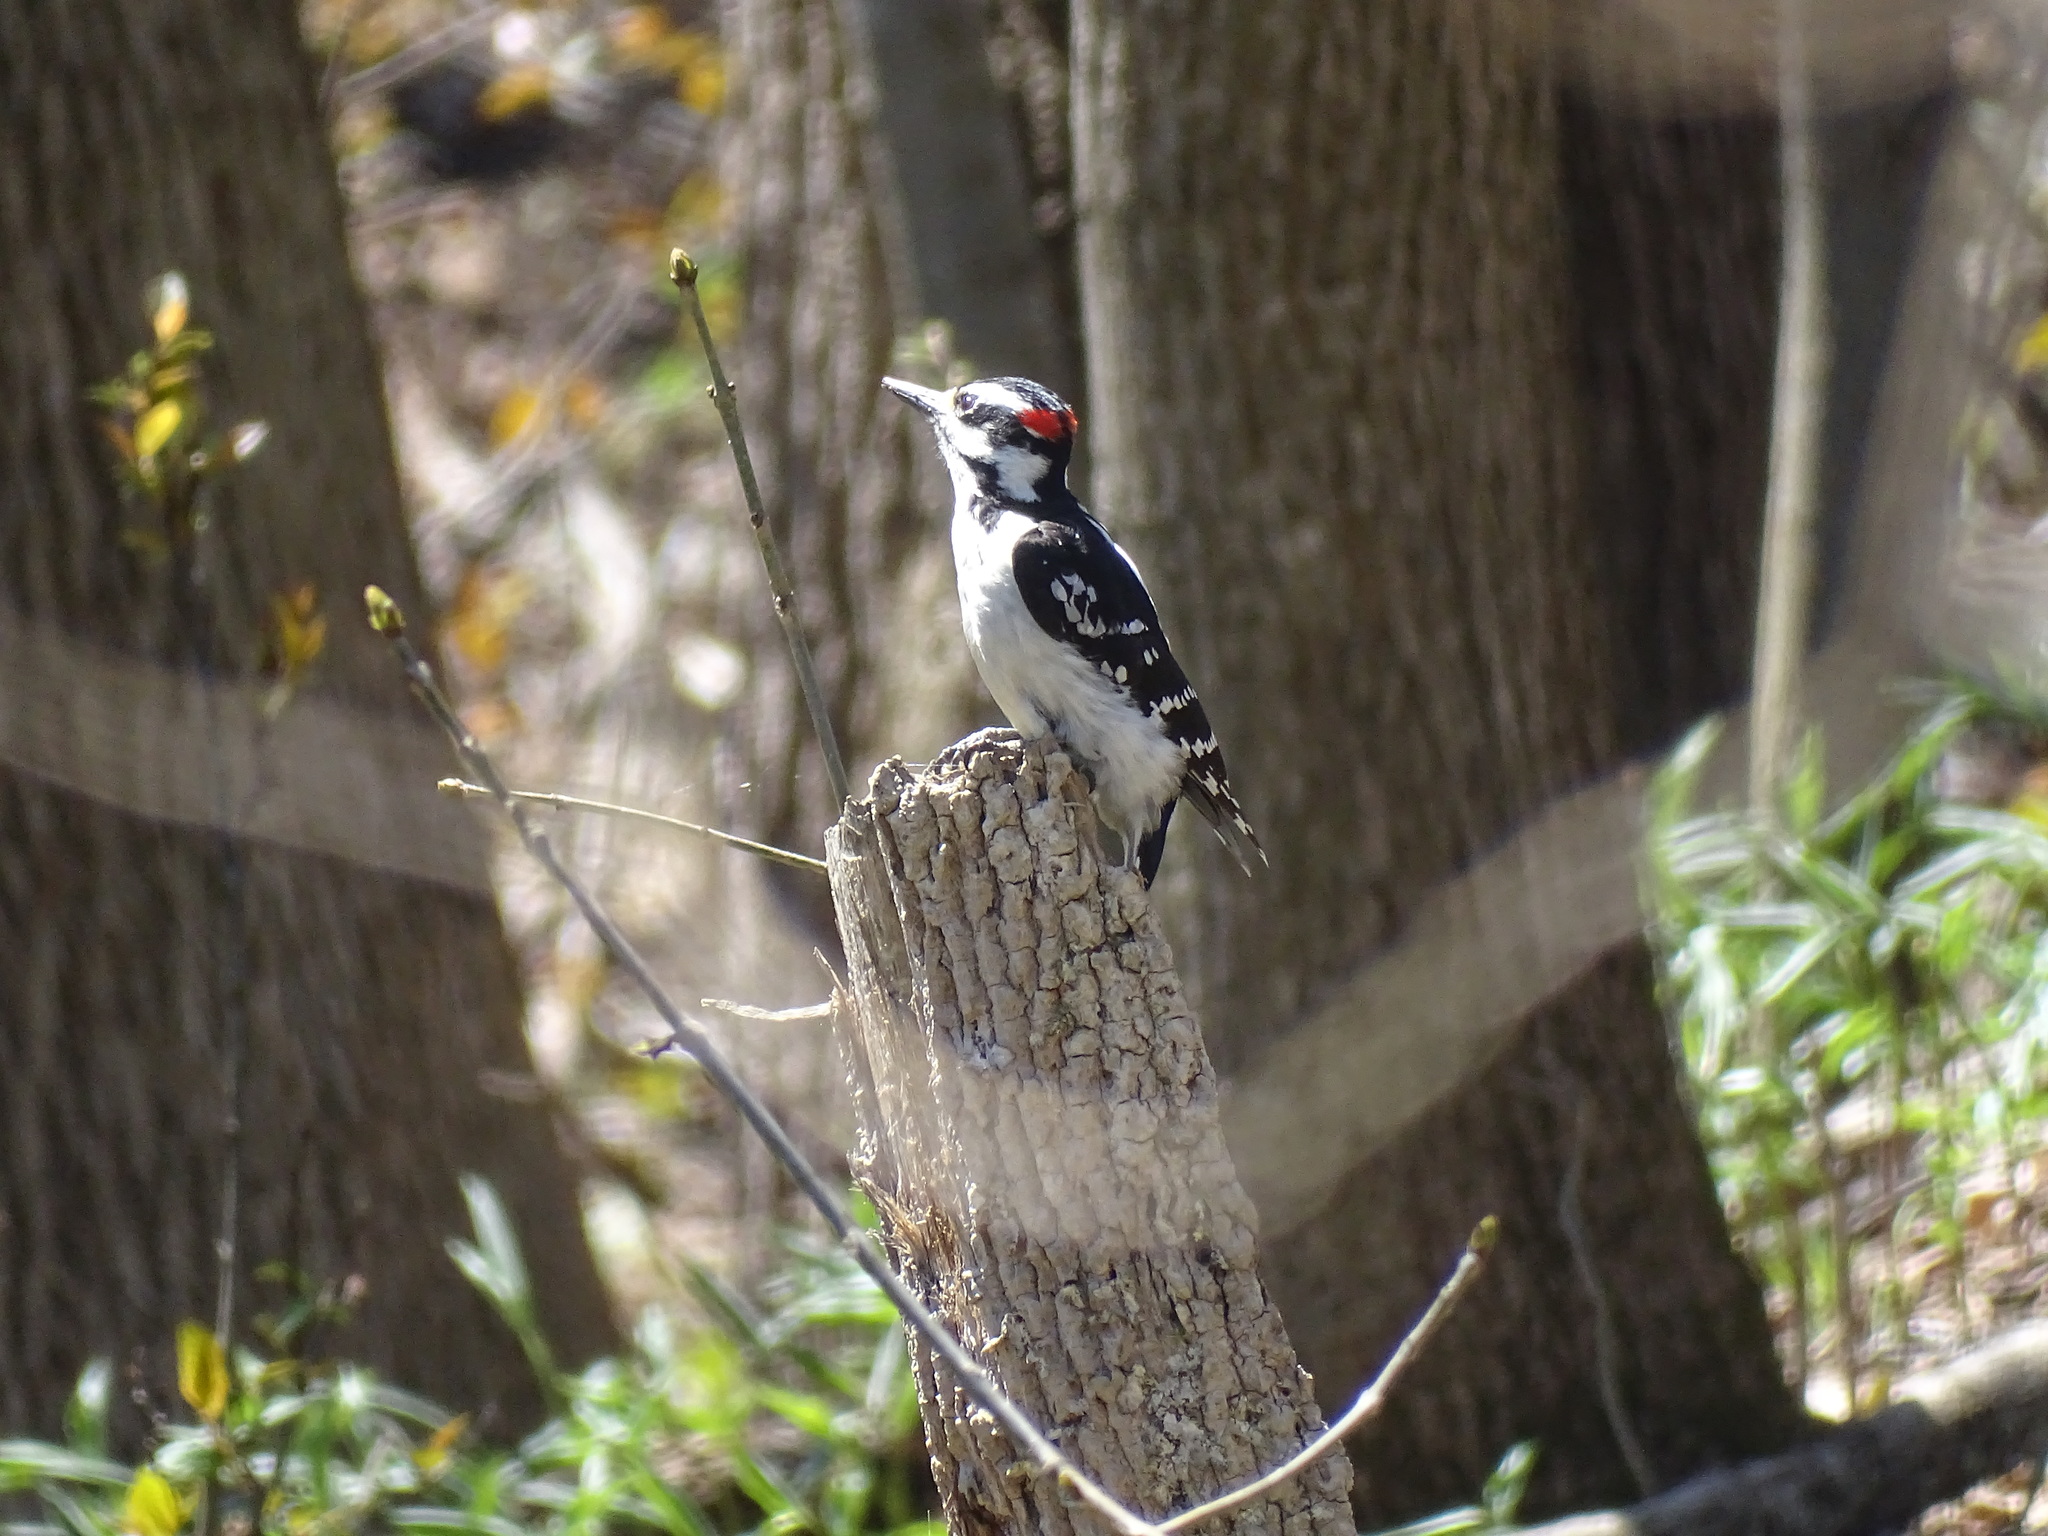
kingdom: Animalia
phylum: Chordata
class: Aves
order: Piciformes
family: Picidae
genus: Leuconotopicus
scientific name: Leuconotopicus villosus
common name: Hairy woodpecker
